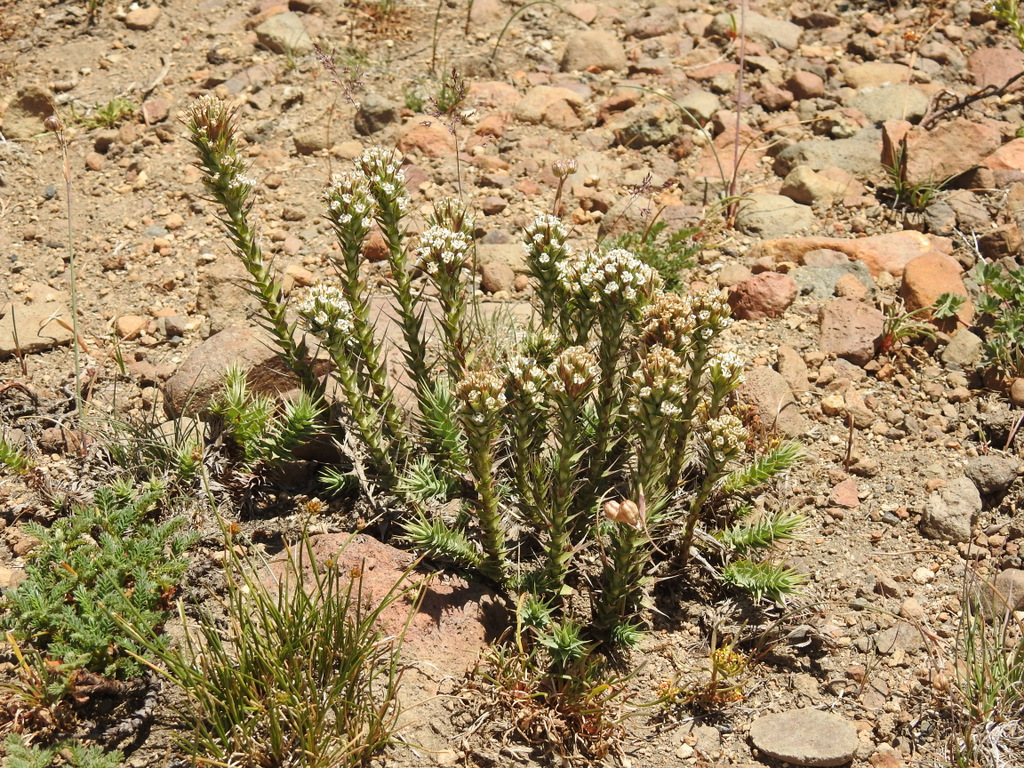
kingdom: Plantae
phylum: Tracheophyta
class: Magnoliopsida
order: Asterales
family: Asteraceae
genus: Nassauvia
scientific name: Nassauvia pyramidalis
